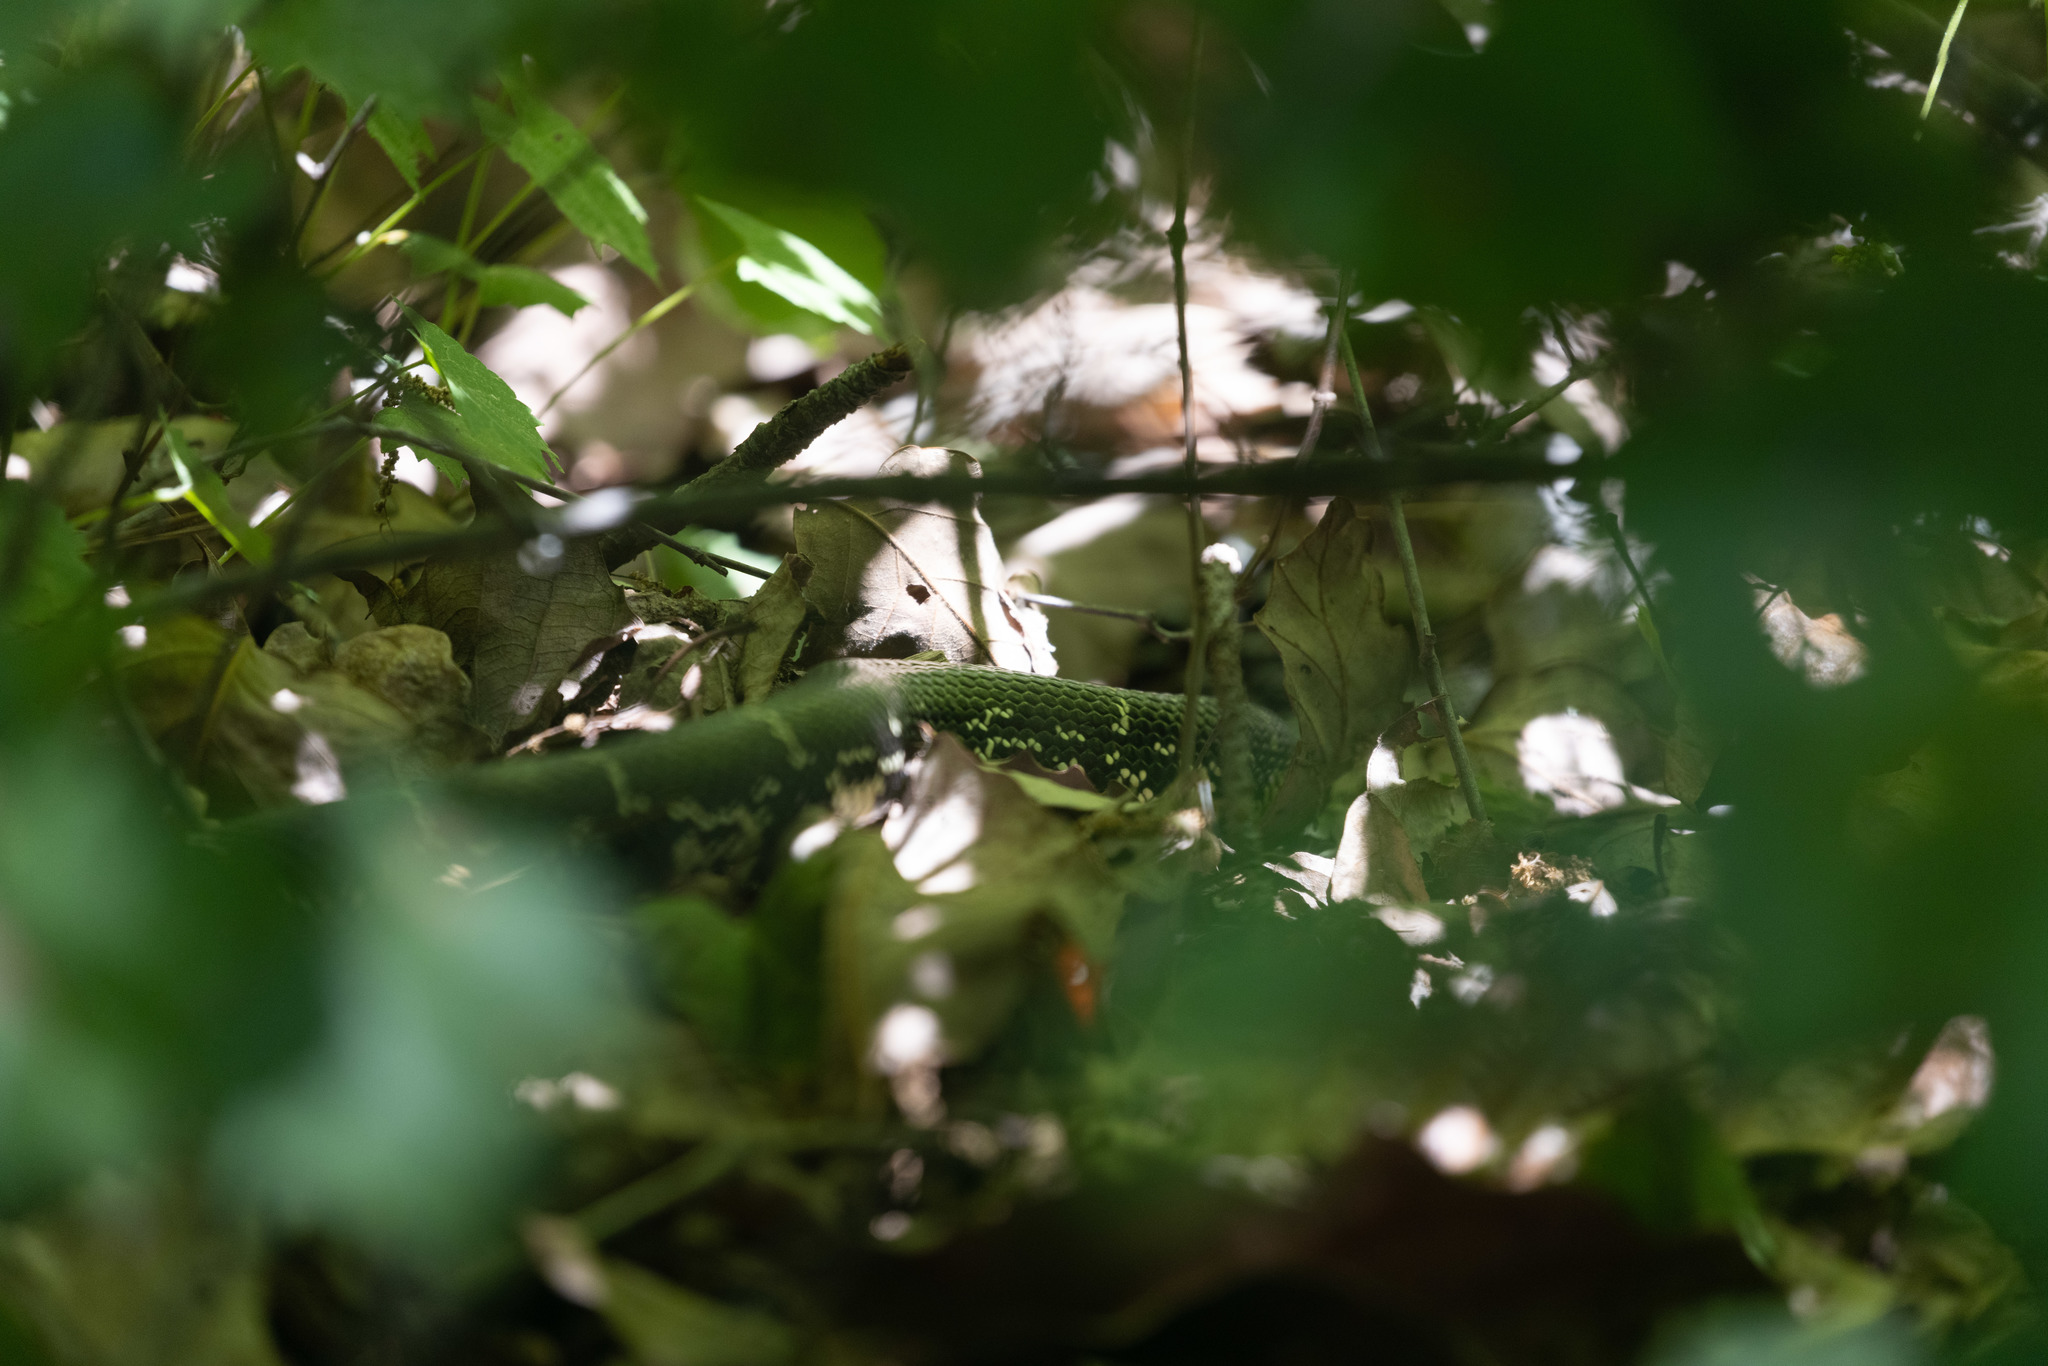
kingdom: Animalia
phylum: Chordata
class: Squamata
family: Colubridae
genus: Lampropeltis
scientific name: Lampropeltis getula
